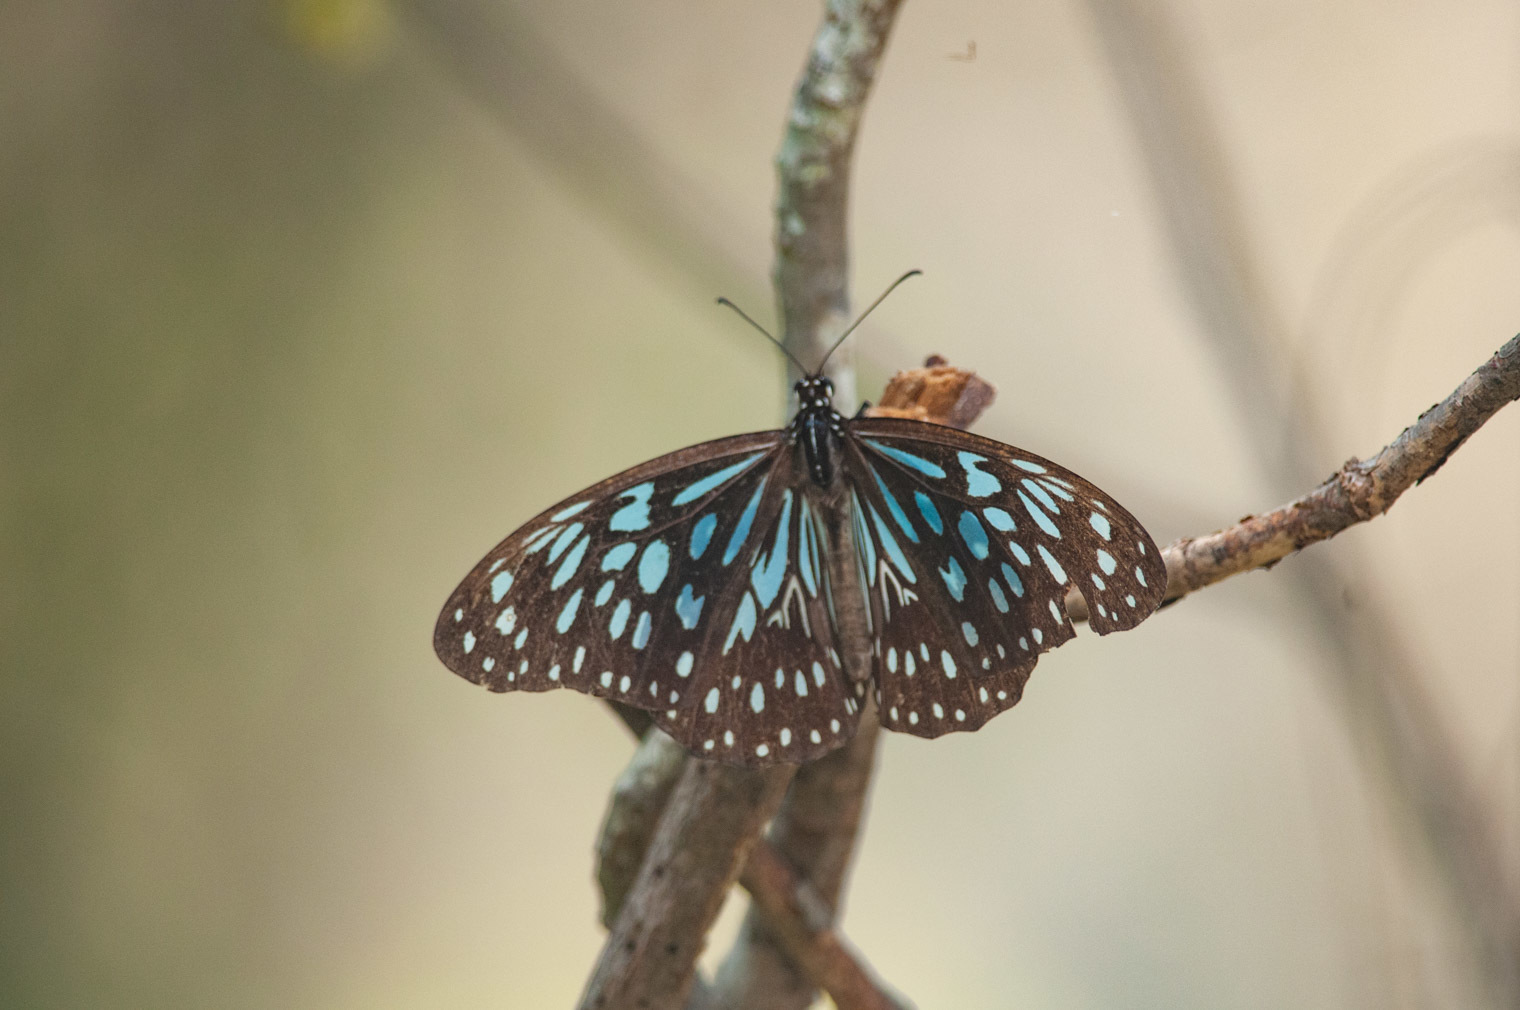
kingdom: Animalia
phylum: Arthropoda
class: Insecta
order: Lepidoptera
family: Nymphalidae
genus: Tirumala
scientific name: Tirumala hamata
